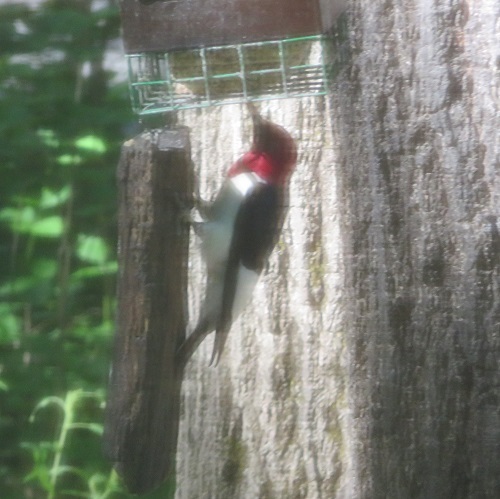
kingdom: Animalia
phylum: Chordata
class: Aves
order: Piciformes
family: Picidae
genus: Melanerpes
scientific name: Melanerpes erythrocephalus
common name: Red-headed woodpecker
